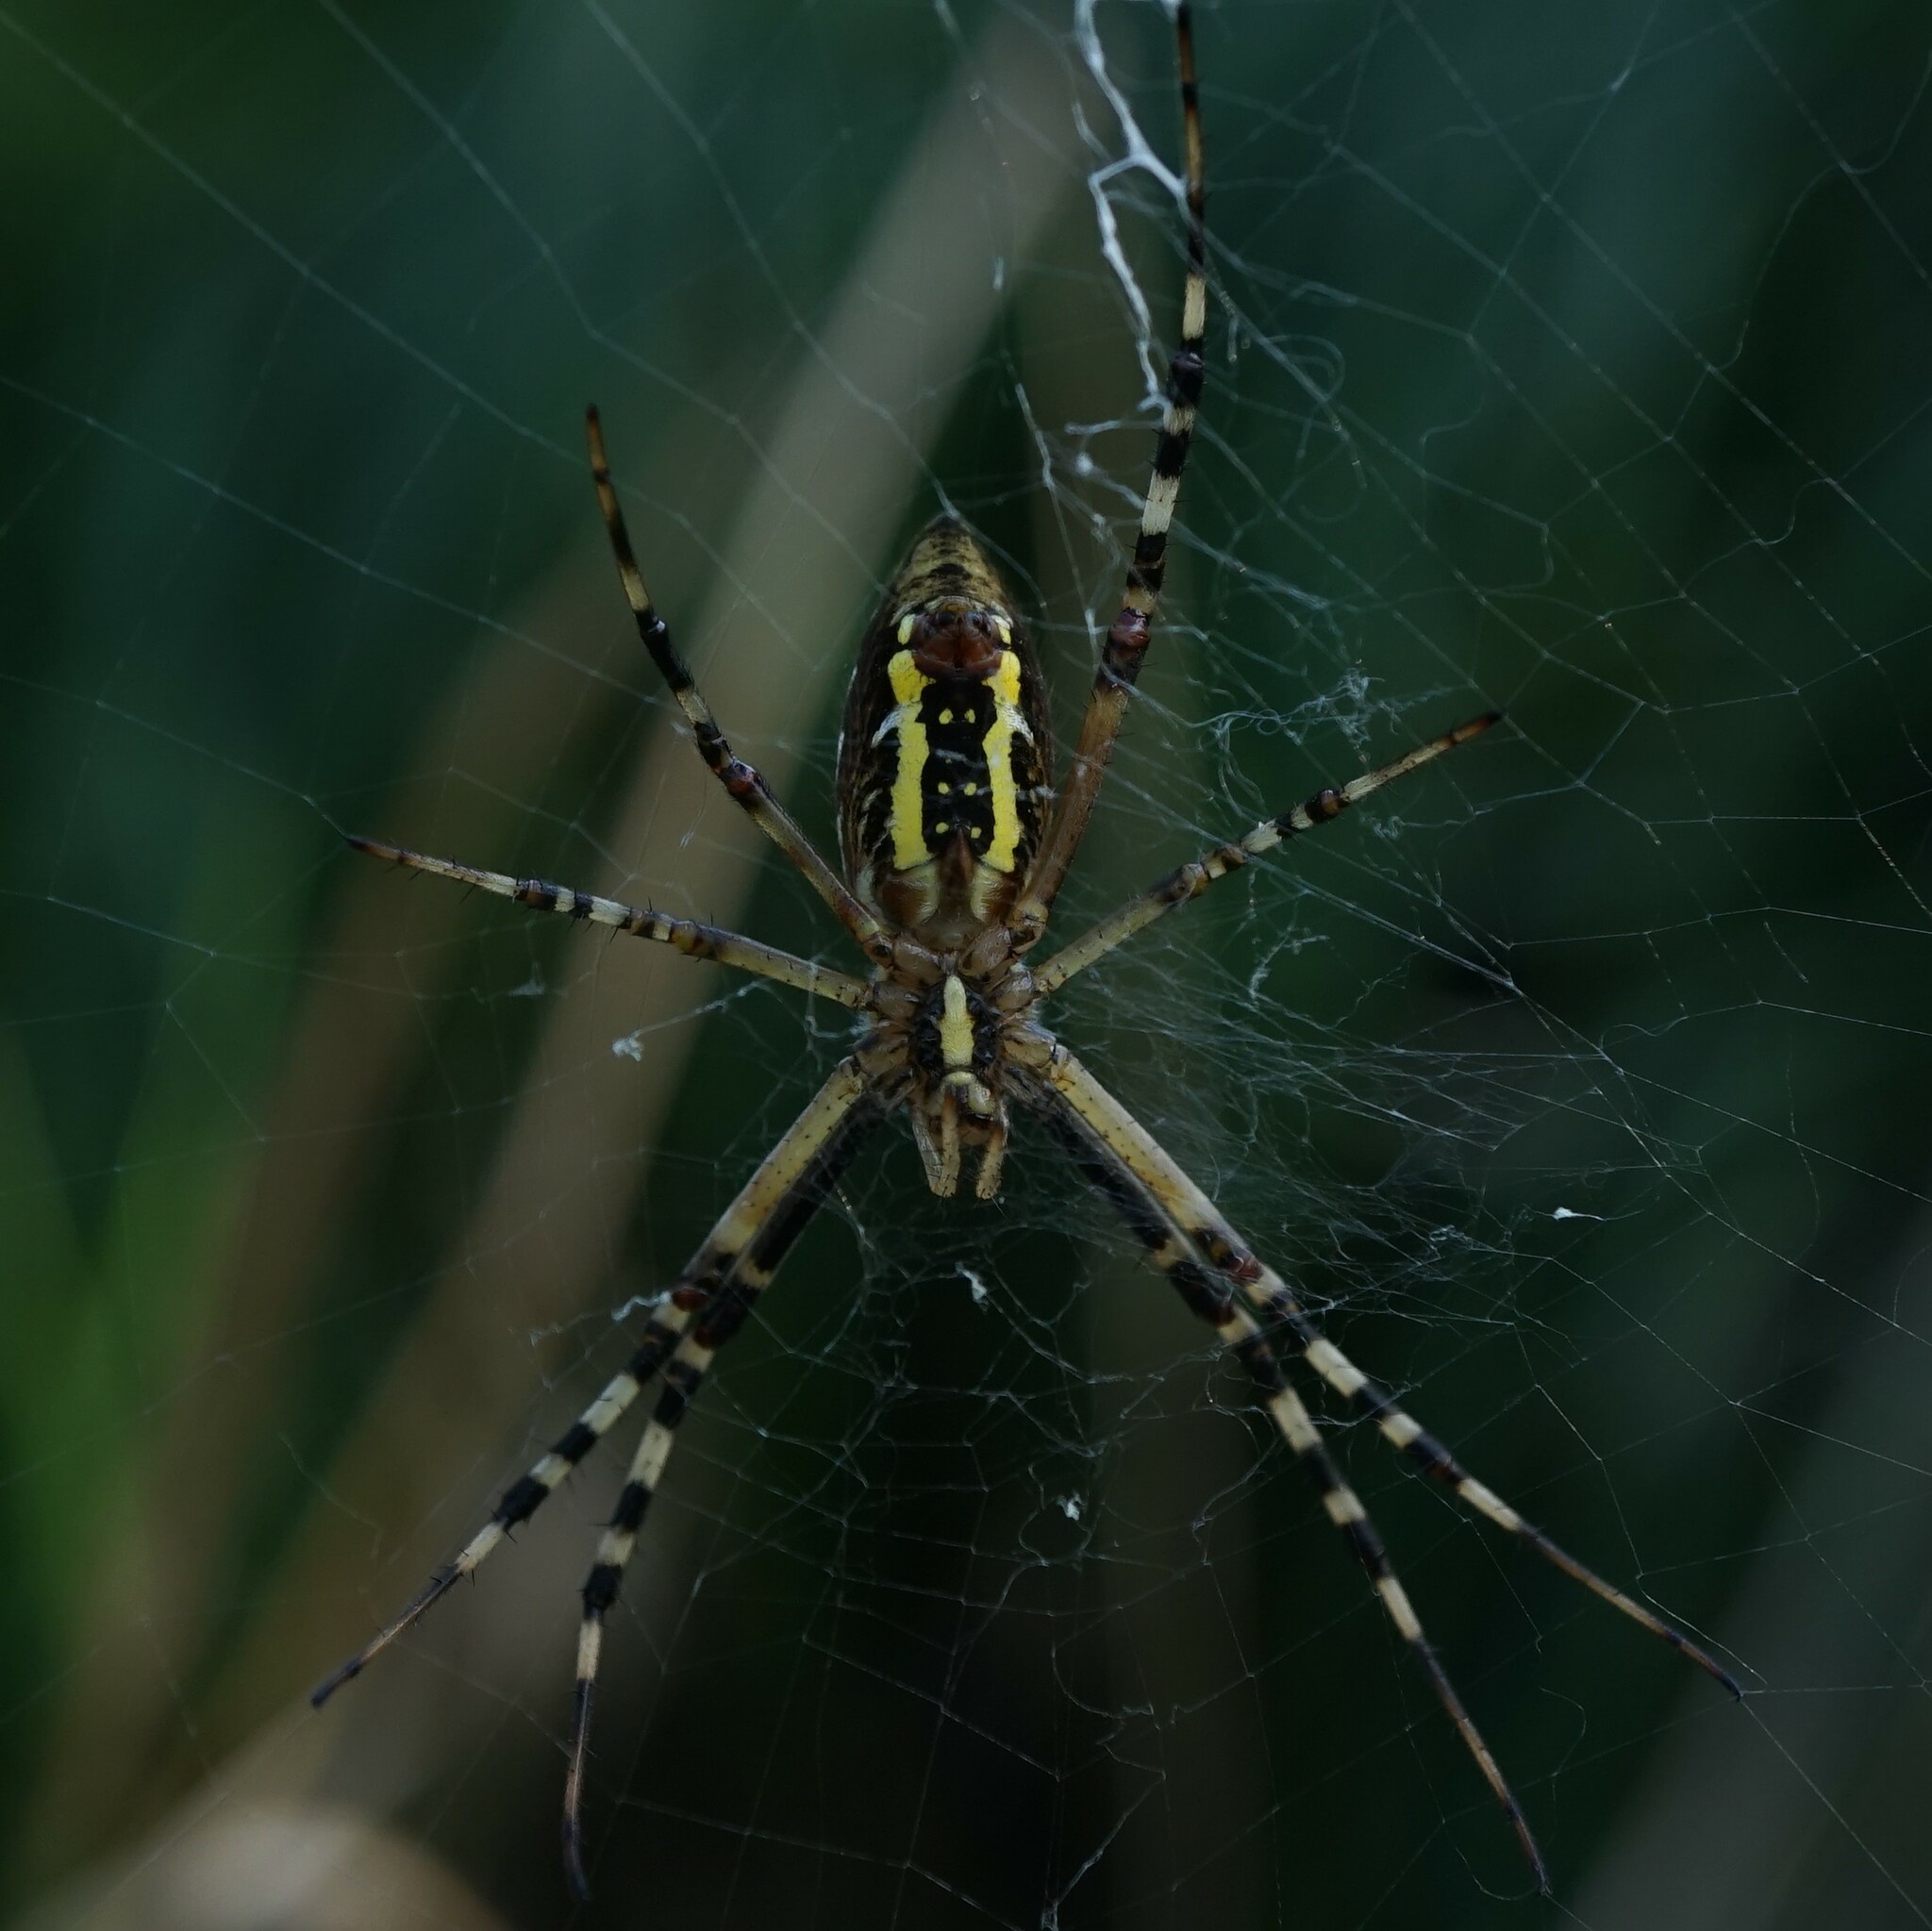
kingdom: Animalia
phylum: Arthropoda
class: Arachnida
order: Araneae
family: Araneidae
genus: Argiope
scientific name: Argiope bruennichi
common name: Wasp spider
